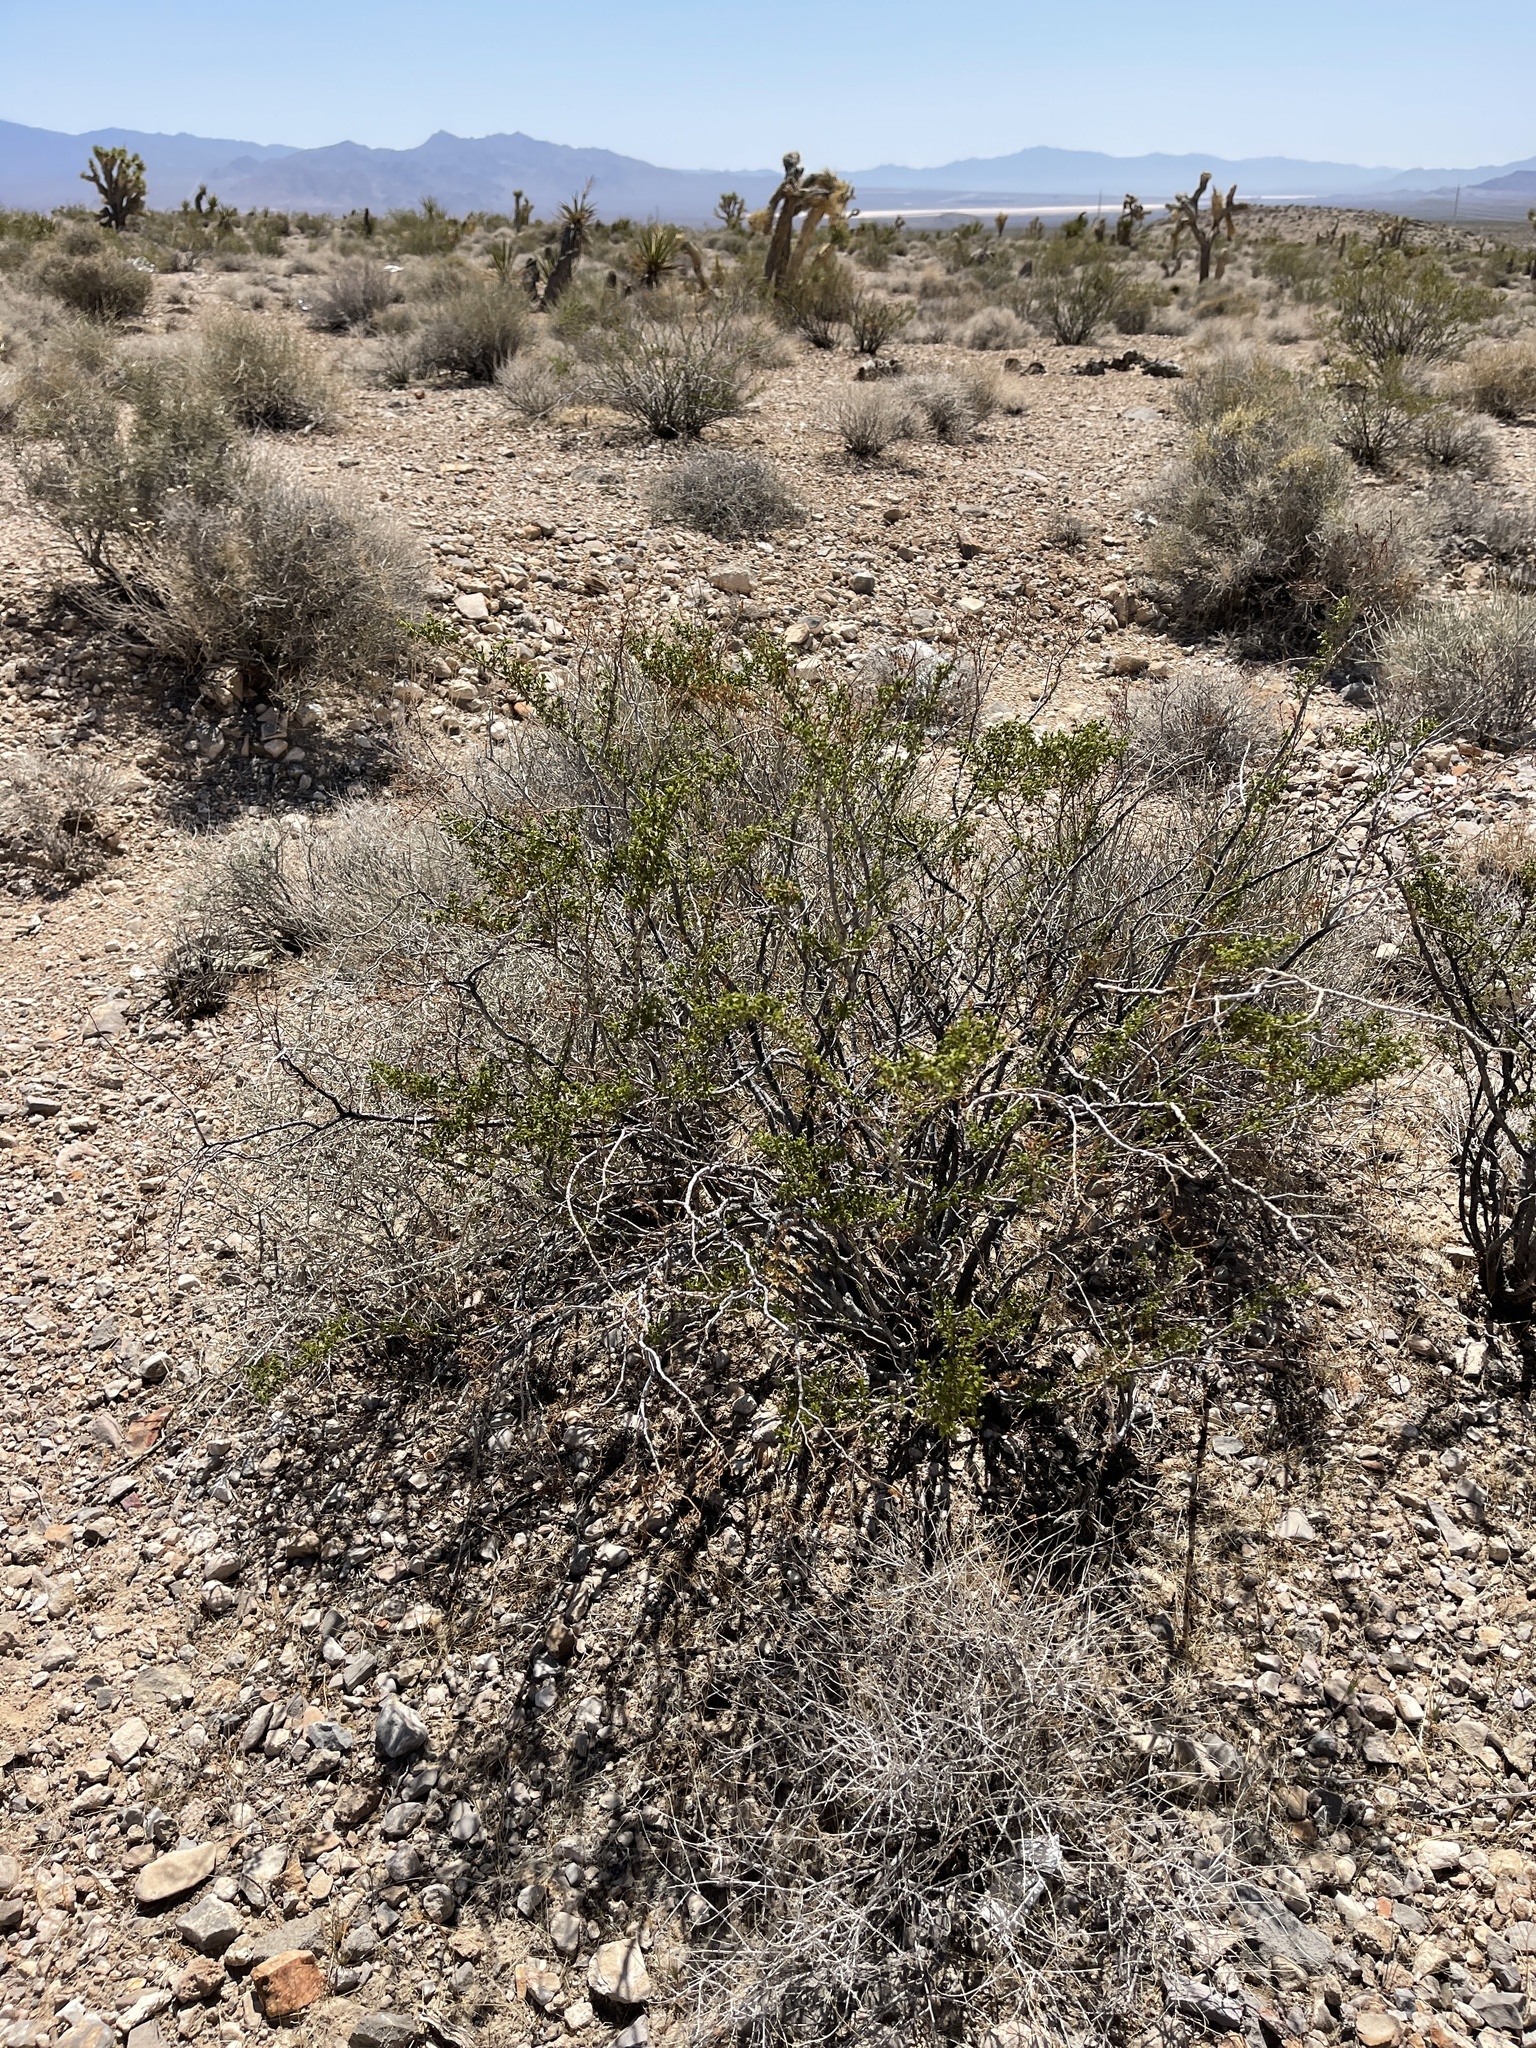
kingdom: Plantae
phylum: Tracheophyta
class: Magnoliopsida
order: Zygophyllales
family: Zygophyllaceae
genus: Larrea
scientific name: Larrea tridentata
